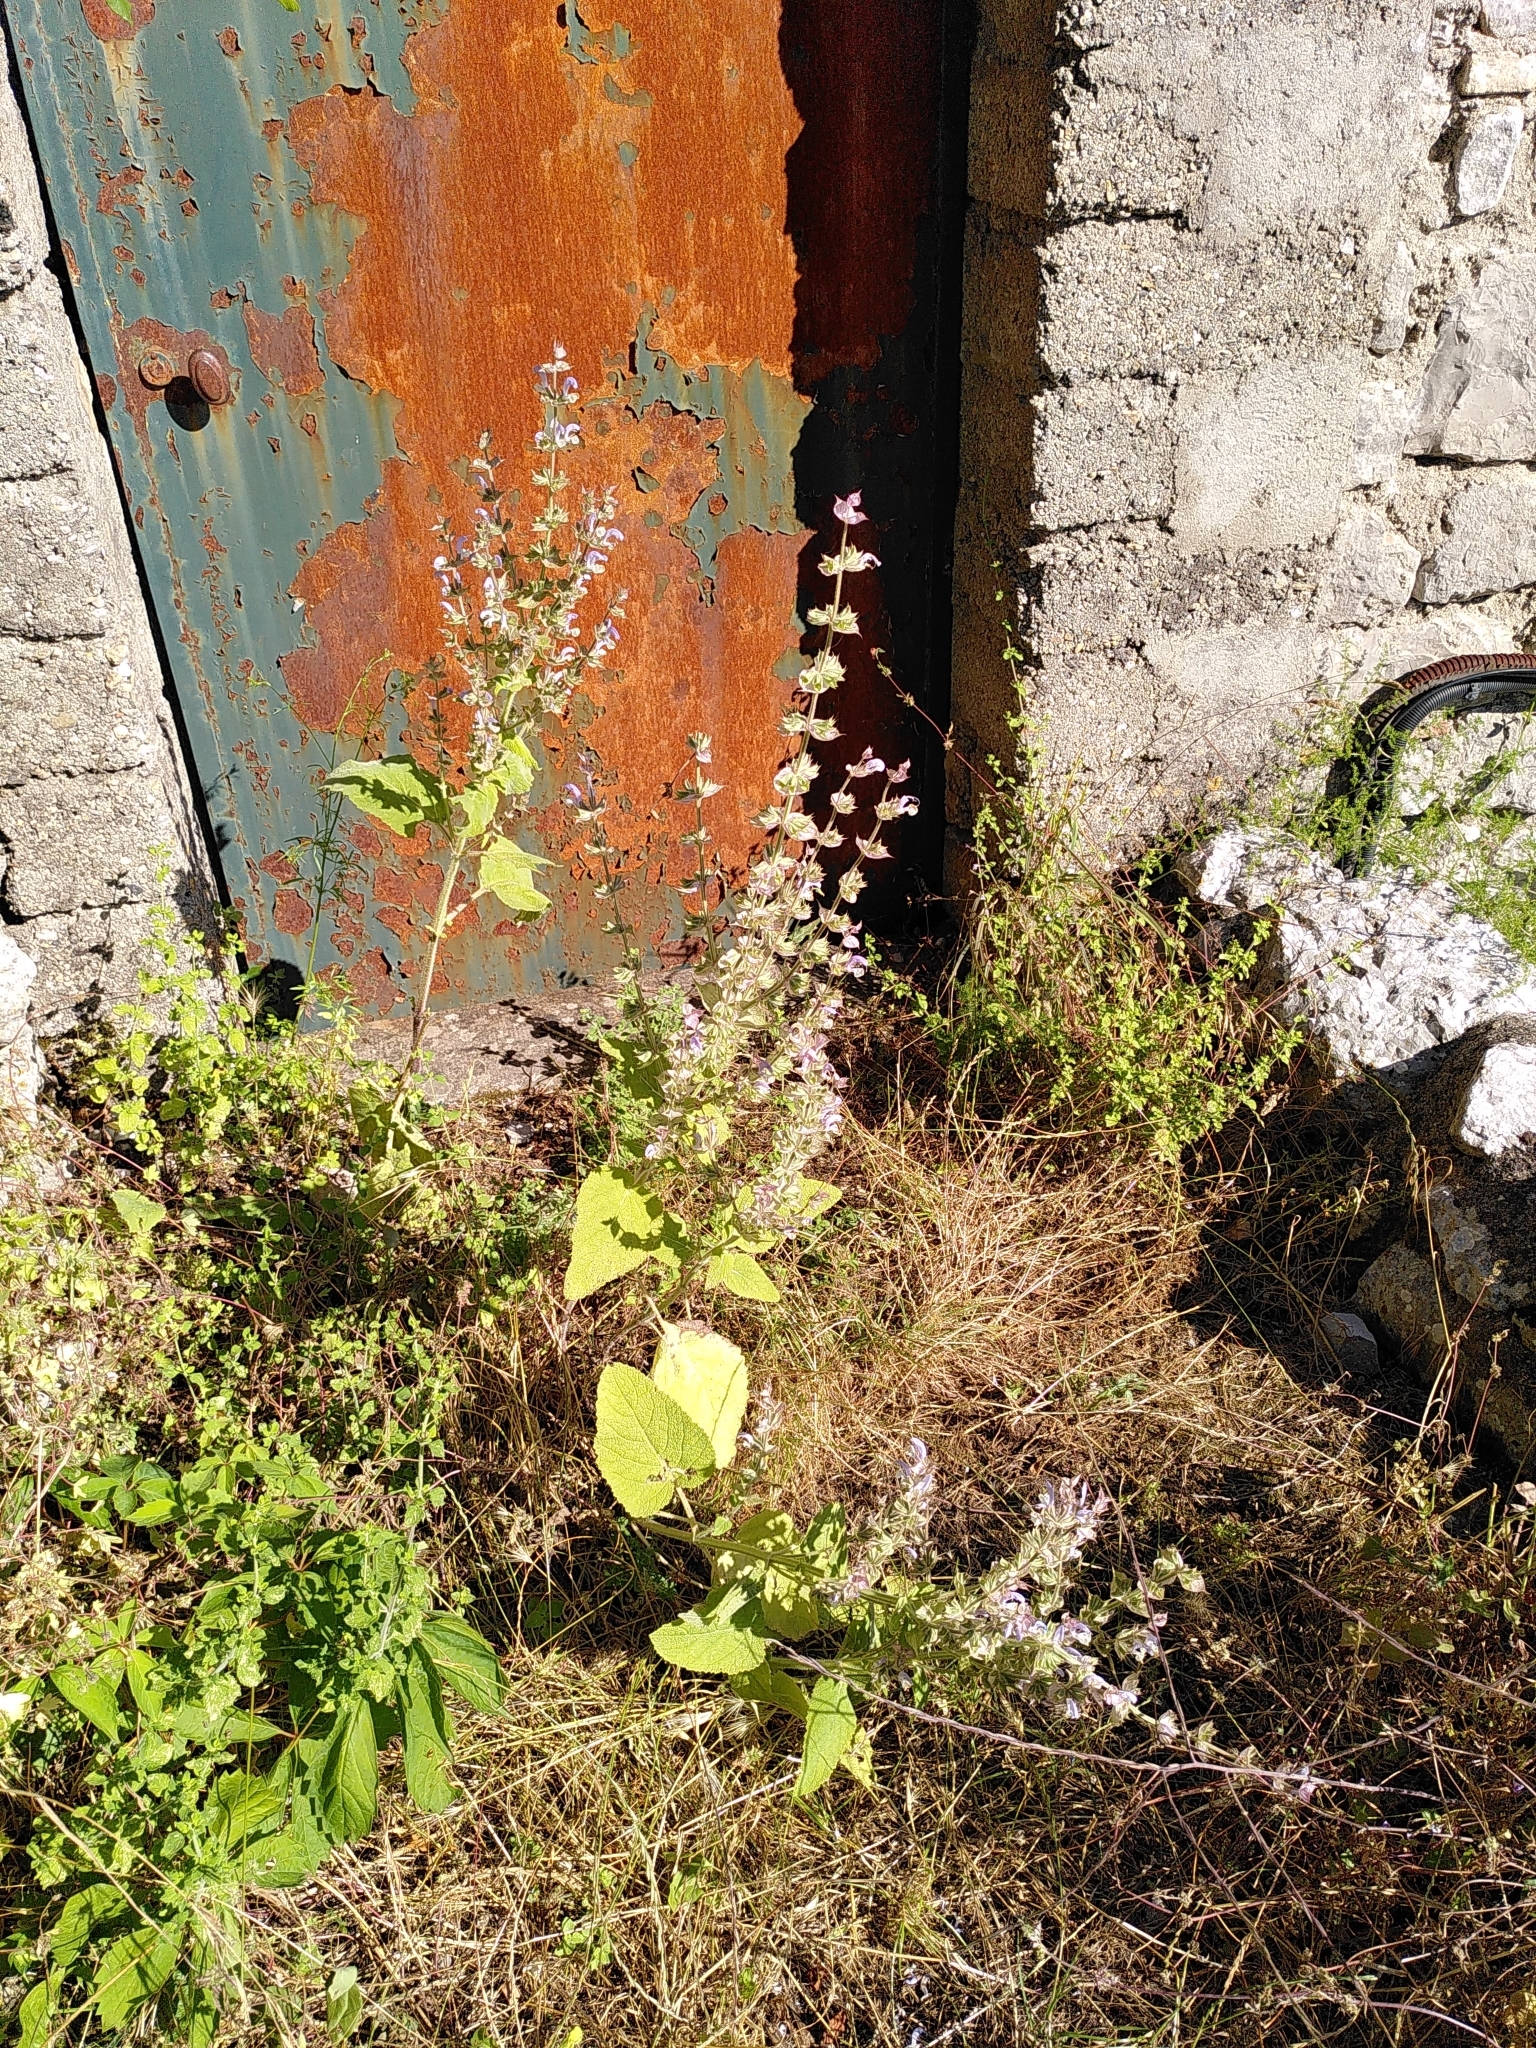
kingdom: Plantae
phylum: Tracheophyta
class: Magnoliopsida
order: Lamiales
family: Lamiaceae
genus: Salvia
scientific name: Salvia sclarea
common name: Clary
